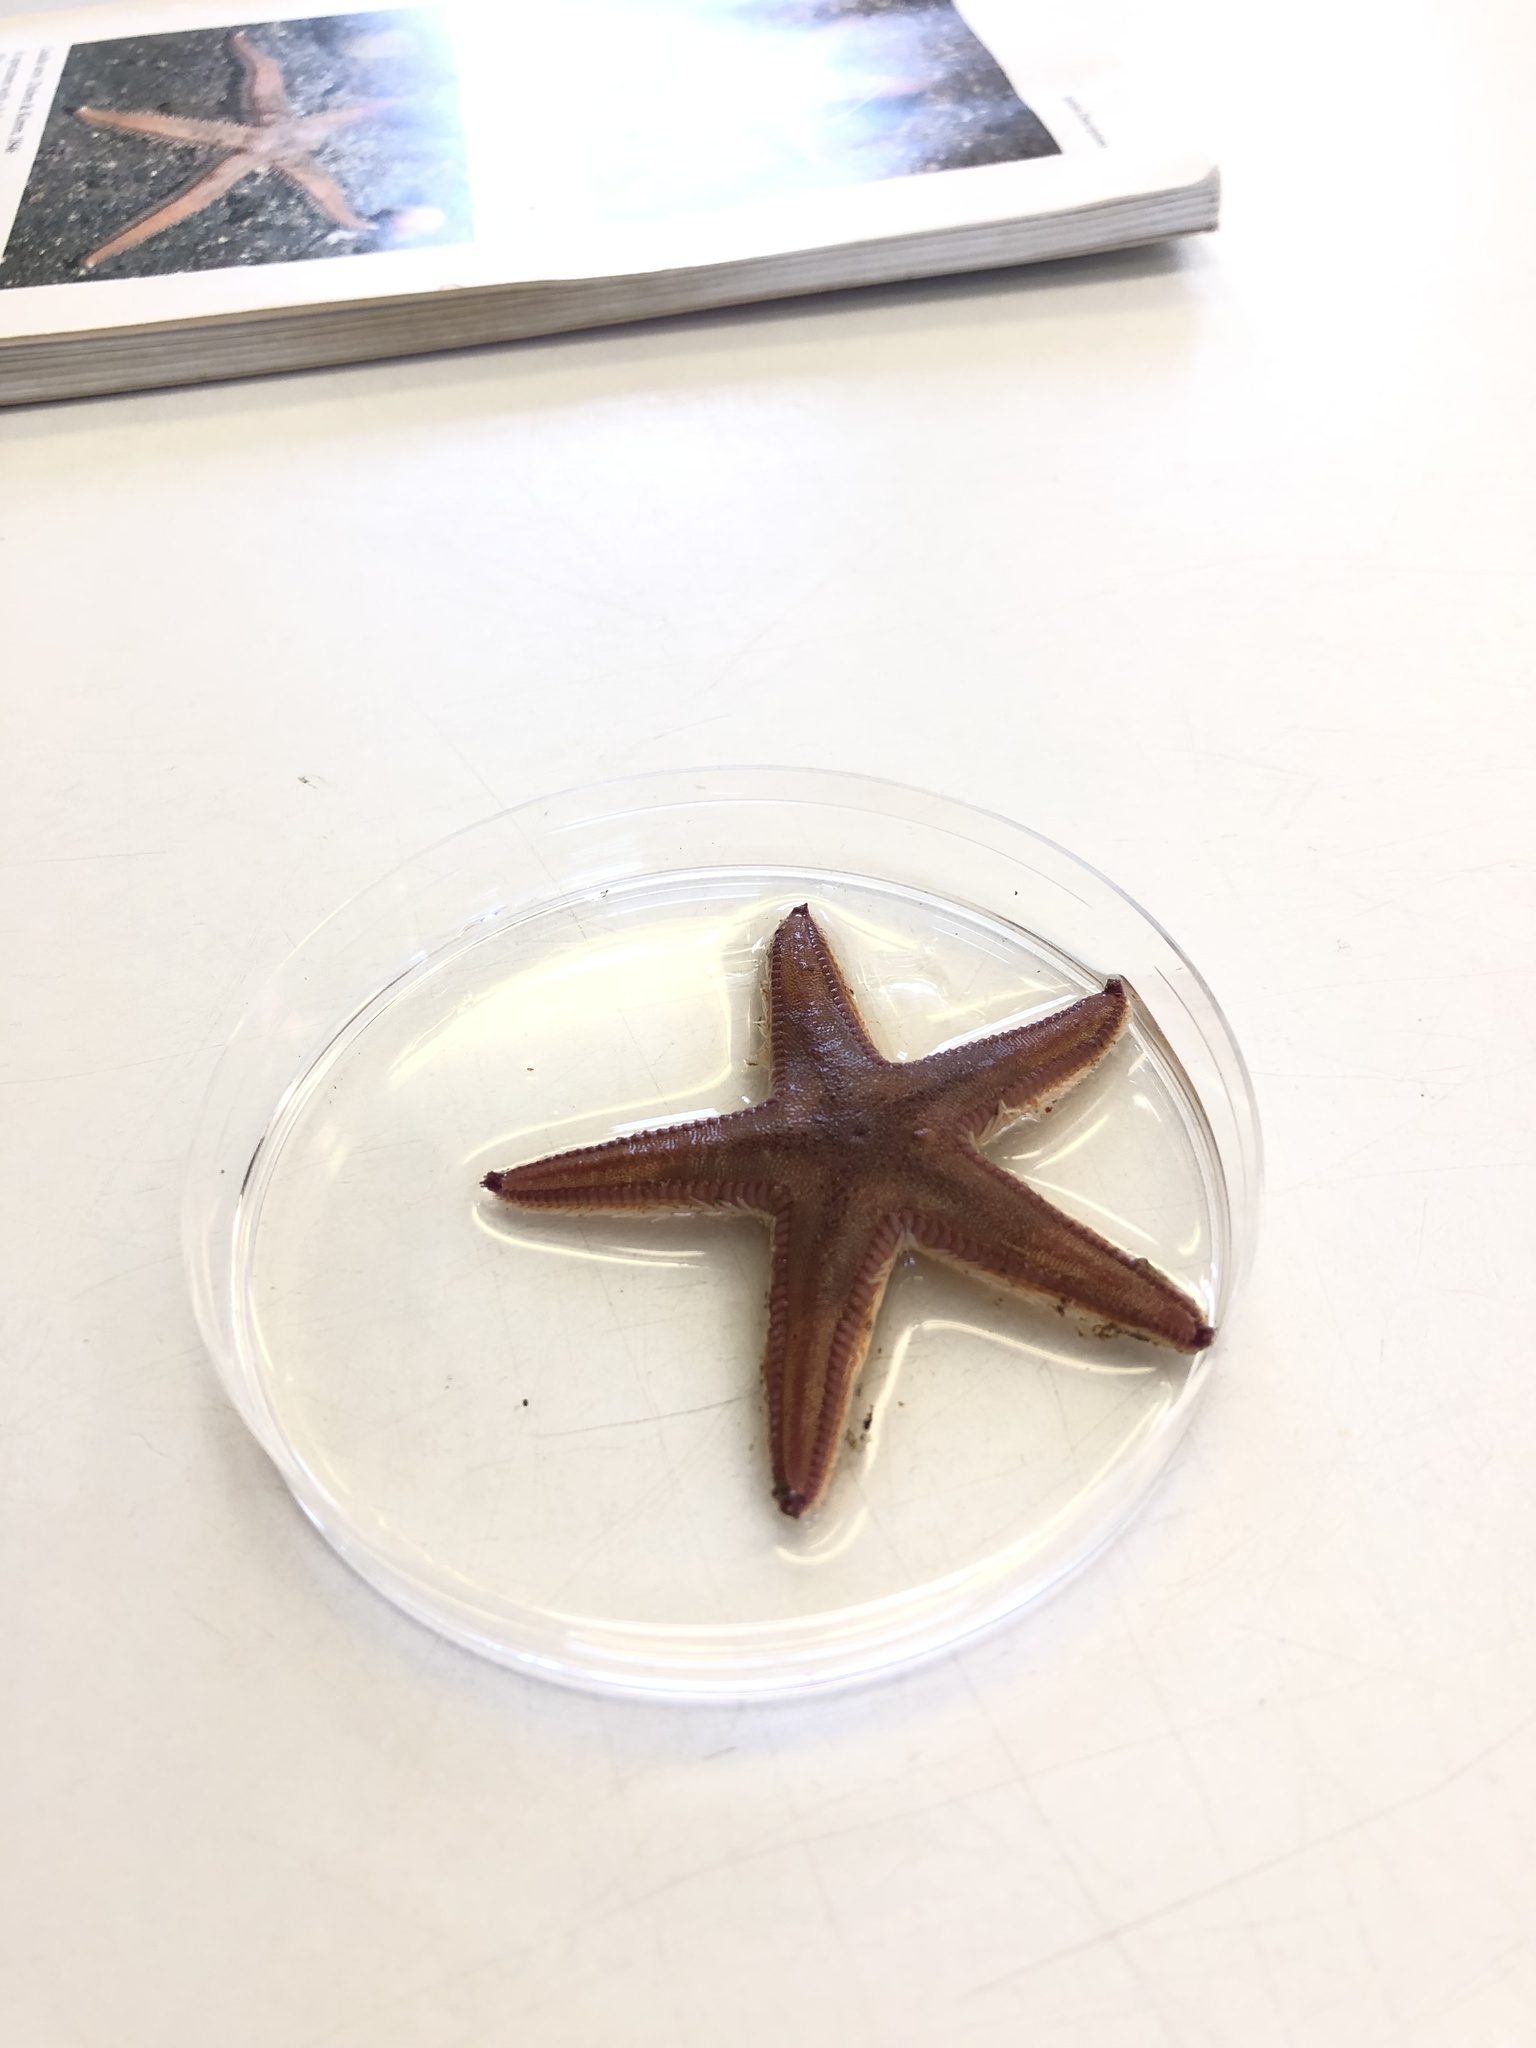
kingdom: Animalia
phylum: Echinodermata
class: Asteroidea
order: Paxillosida
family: Astropectinidae
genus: Astropecten
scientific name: Astropecten irregularis
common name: Sand star
